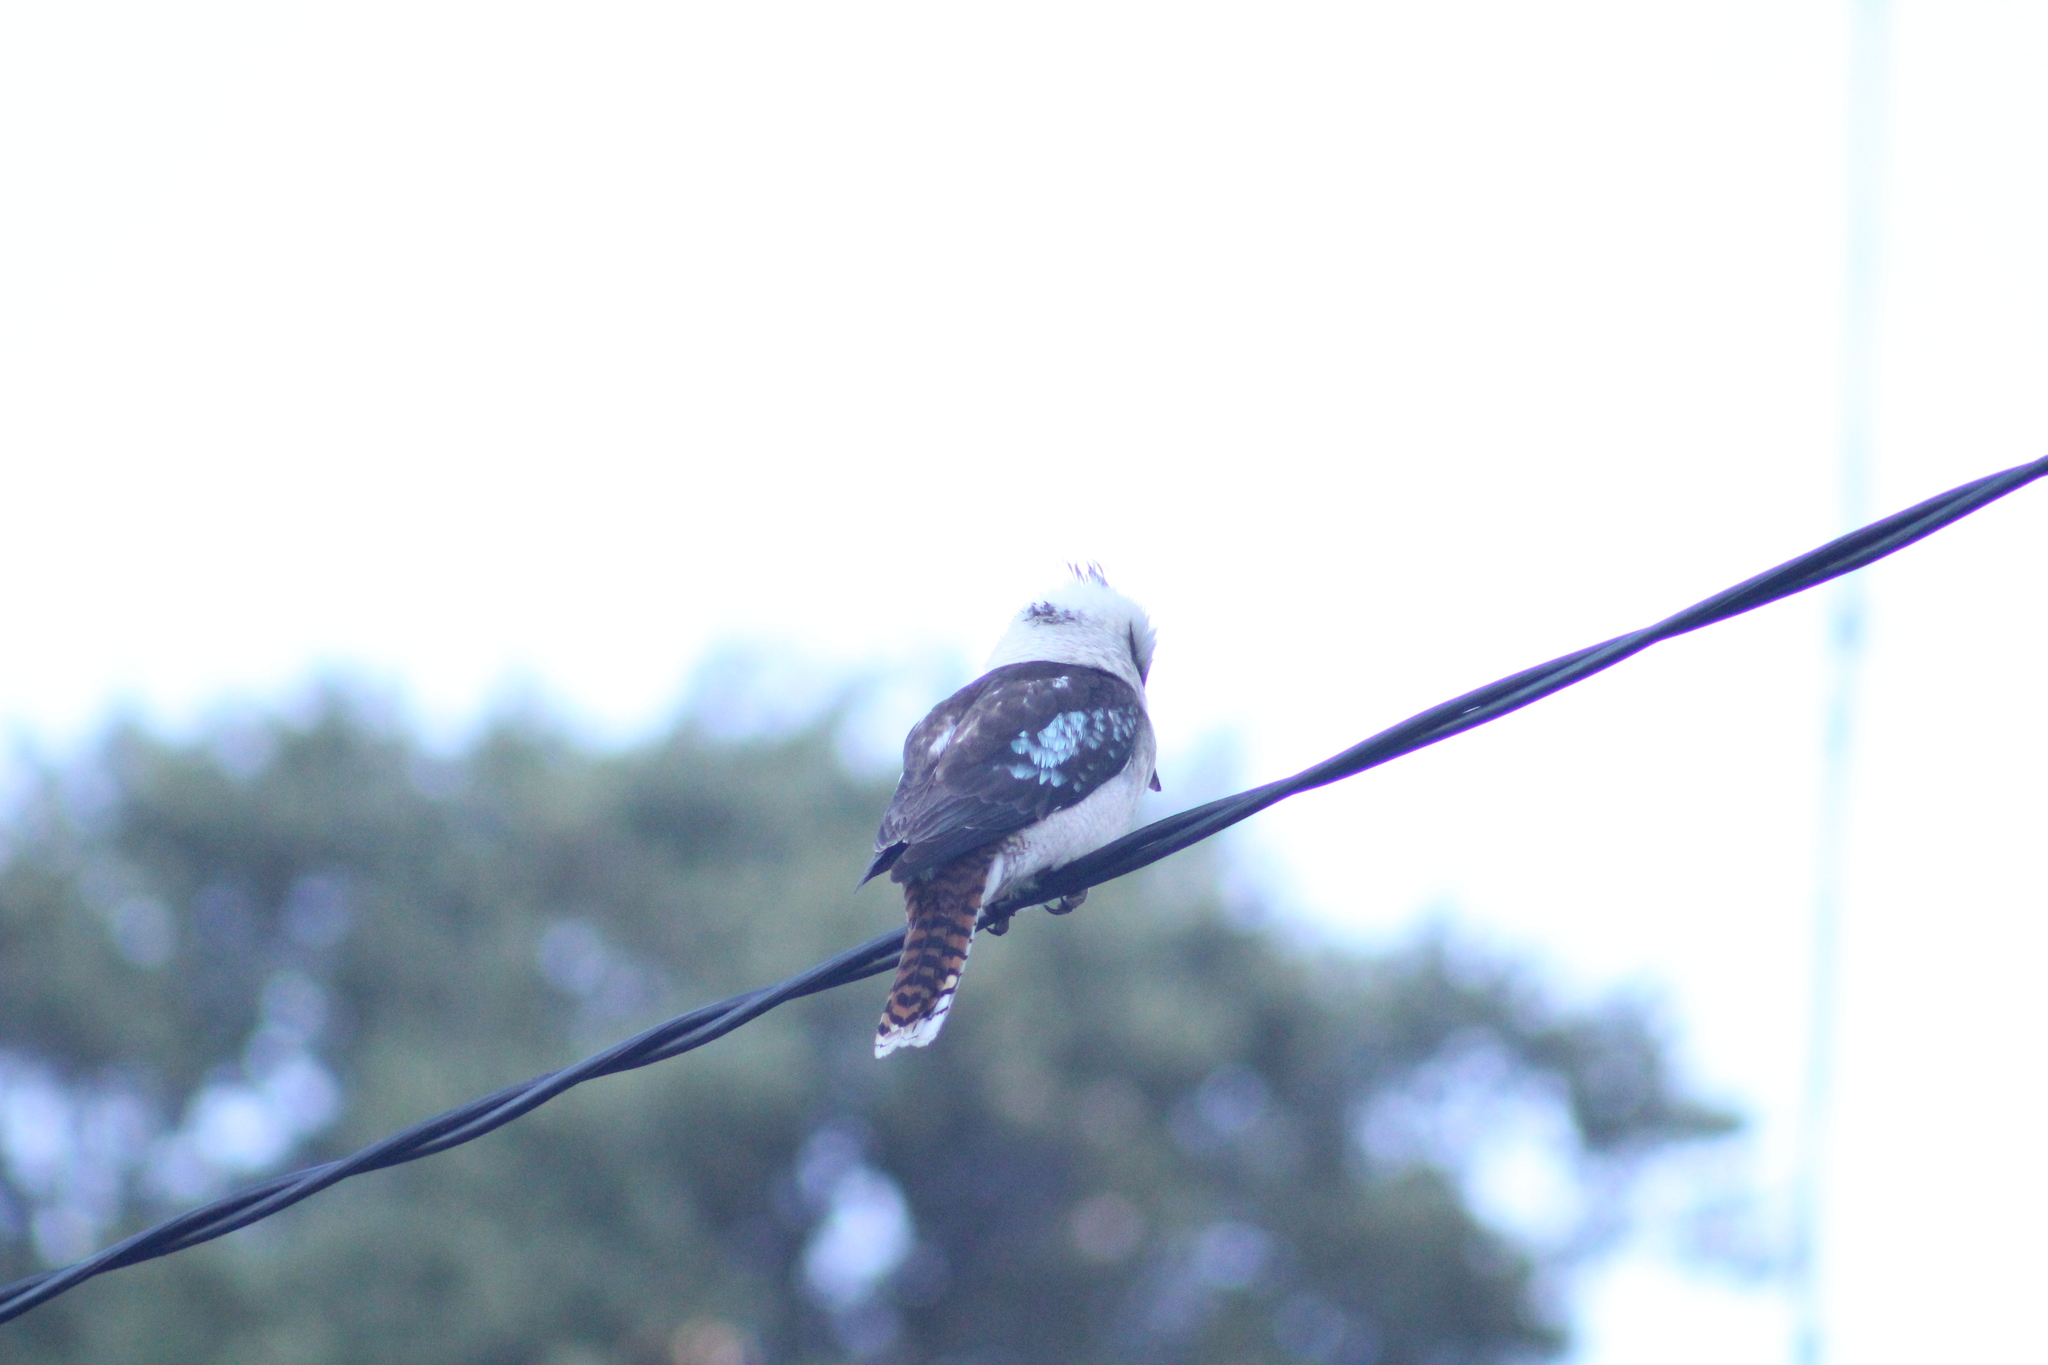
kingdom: Animalia
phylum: Chordata
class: Aves
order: Coraciiformes
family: Alcedinidae
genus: Dacelo
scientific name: Dacelo novaeguineae
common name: Laughing kookaburra
